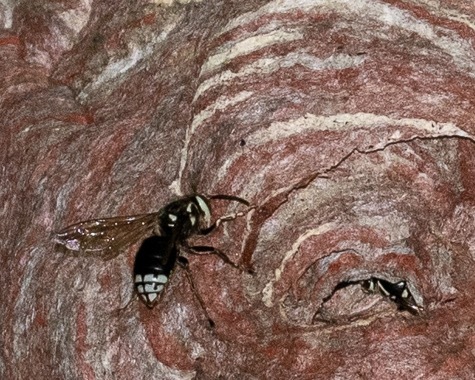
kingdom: Animalia
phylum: Arthropoda
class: Insecta
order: Hymenoptera
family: Vespidae
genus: Dolichovespula
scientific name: Dolichovespula maculata
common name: Bald-faced hornet
